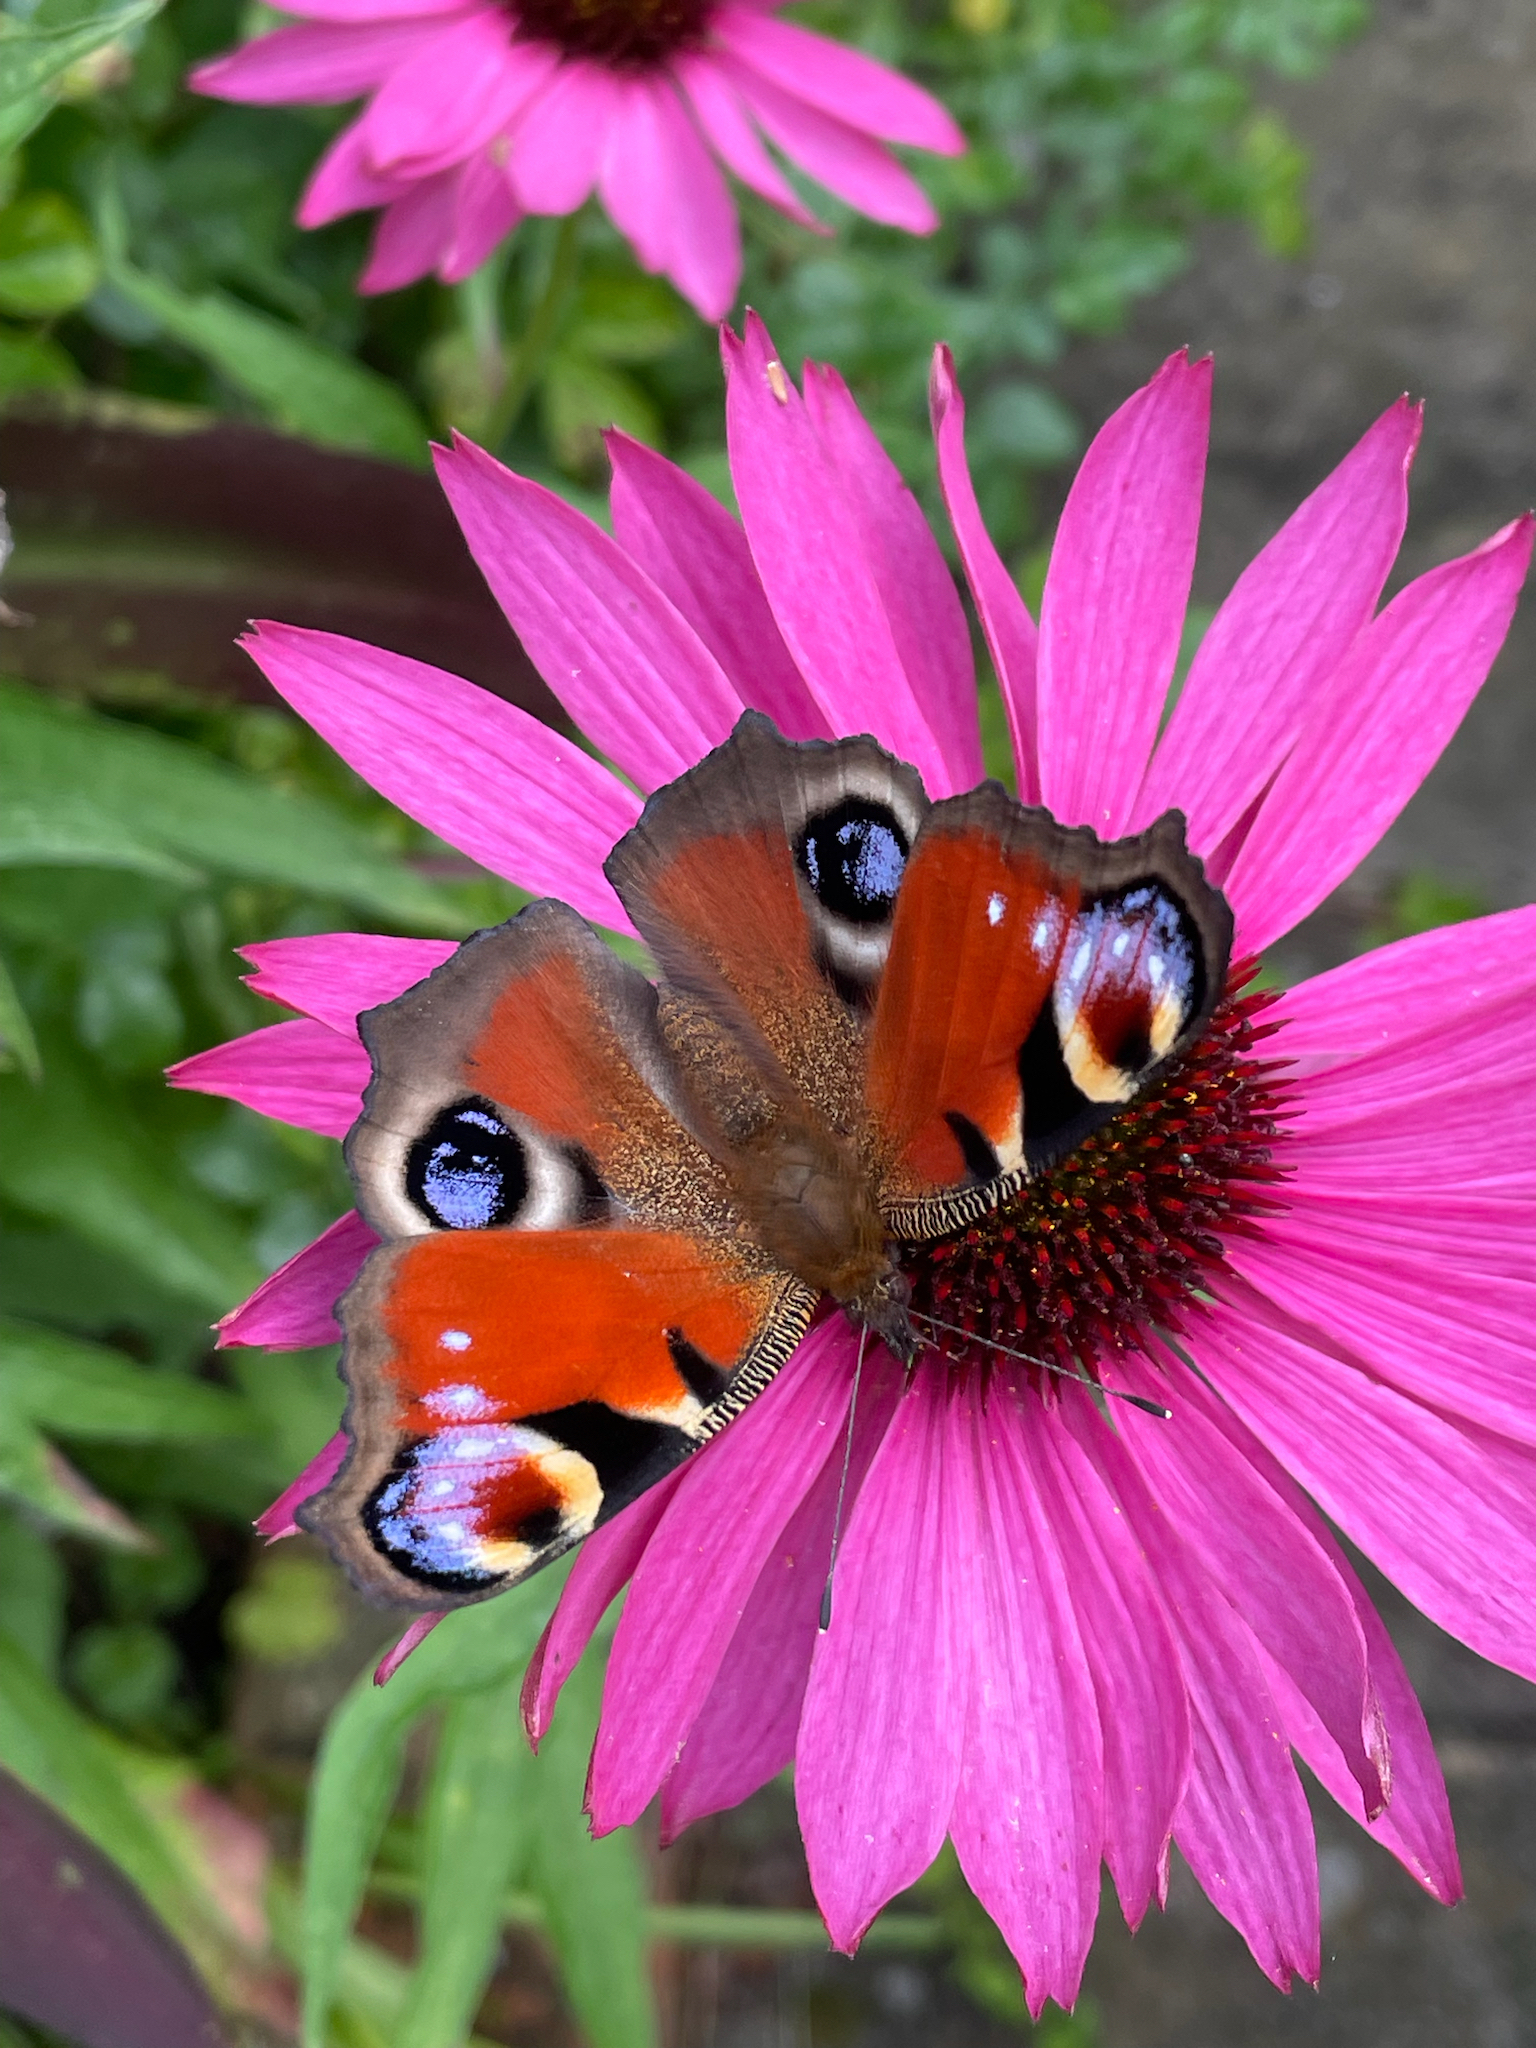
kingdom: Animalia
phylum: Arthropoda
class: Insecta
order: Lepidoptera
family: Nymphalidae
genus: Aglais
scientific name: Aglais io
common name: Peacock
